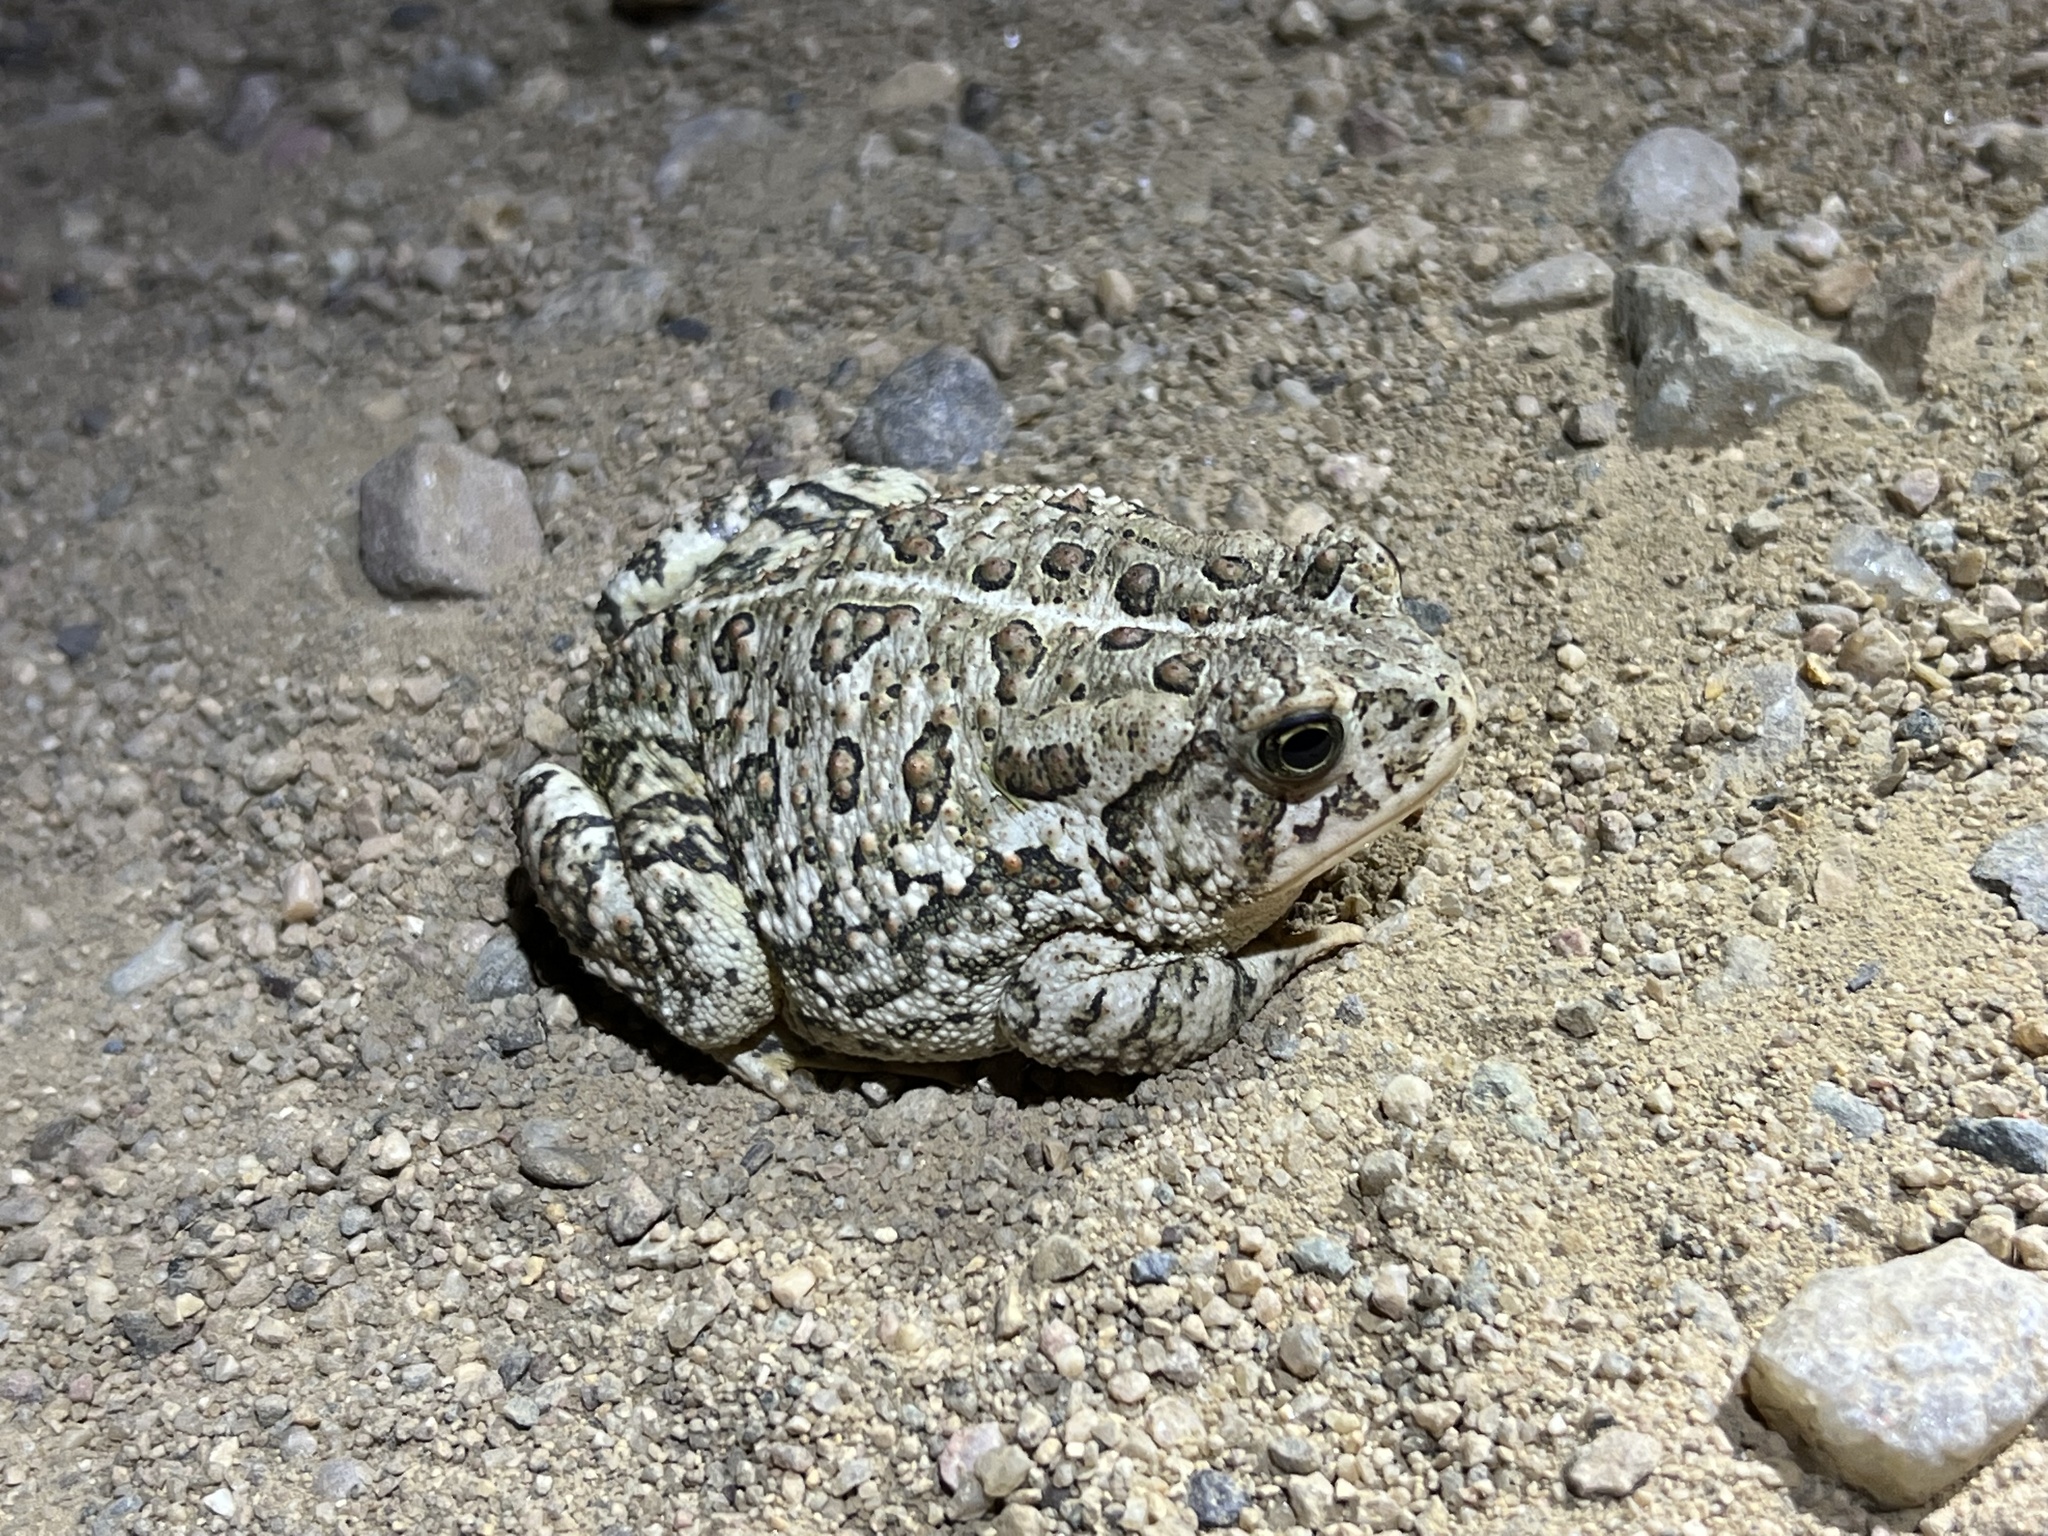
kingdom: Animalia
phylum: Chordata
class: Amphibia
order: Anura
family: Bufonidae
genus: Anaxyrus
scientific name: Anaxyrus woodhousii
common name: Woodhouse's toad
